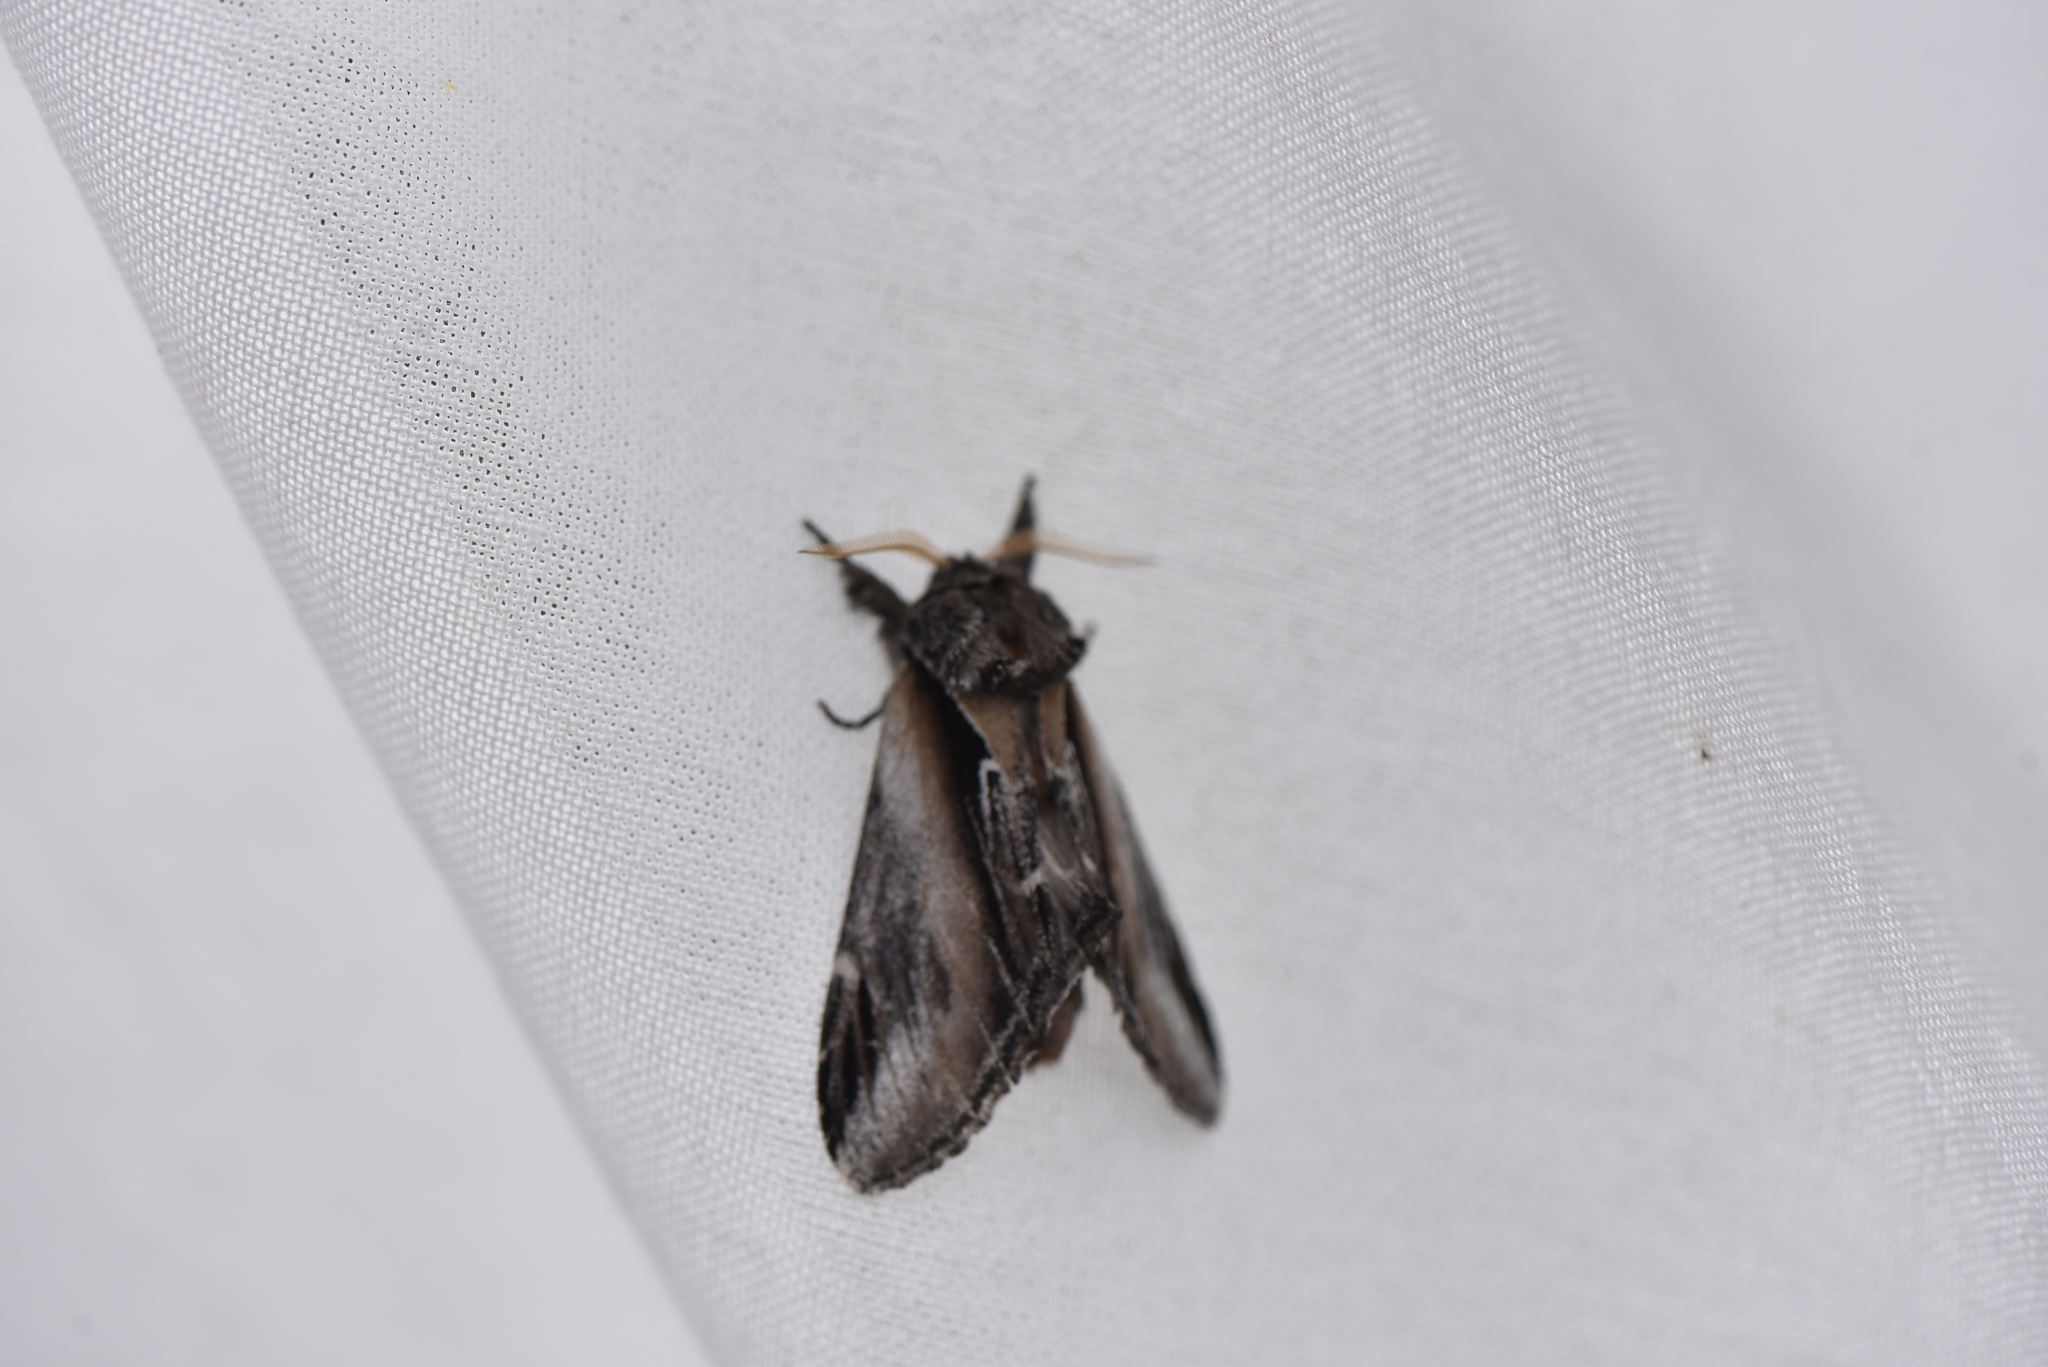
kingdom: Animalia
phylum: Arthropoda
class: Insecta
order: Lepidoptera
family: Notodontidae
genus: Pheosia
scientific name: Pheosia rimosa
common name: Black-rimmed prominent
